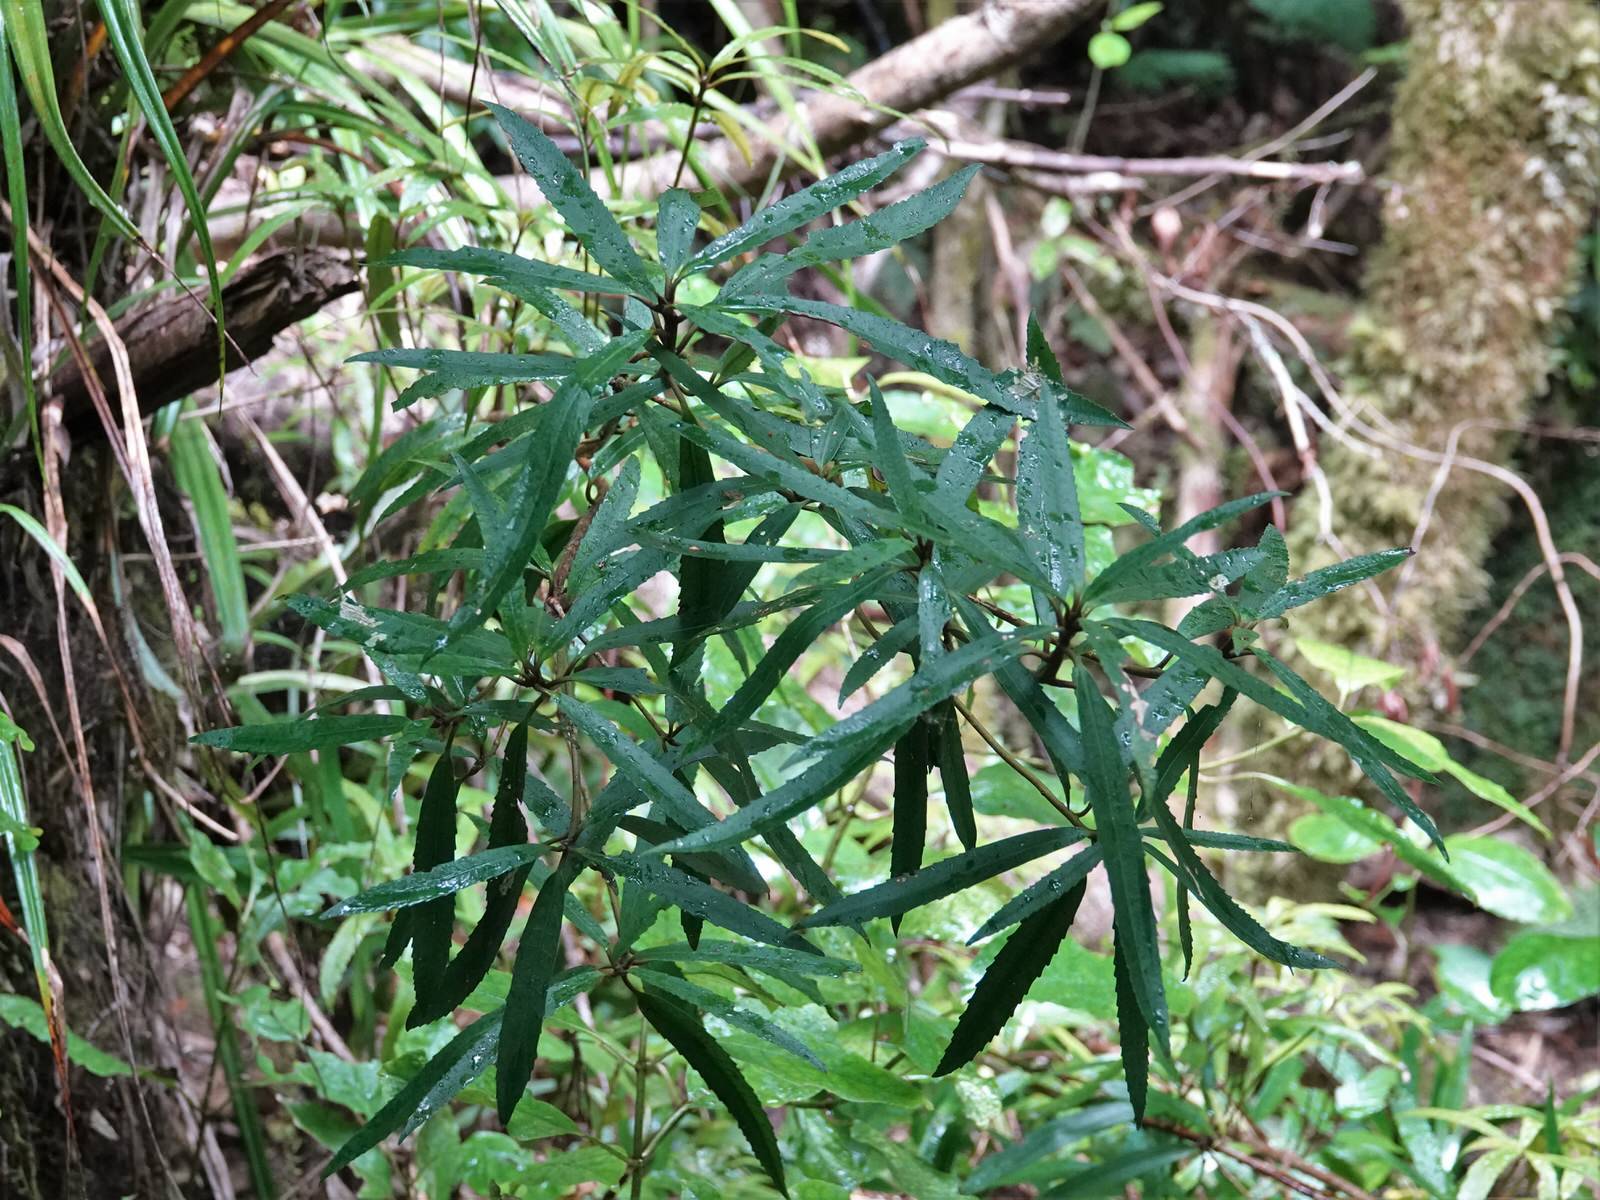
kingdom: Plantae
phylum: Tracheophyta
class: Magnoliopsida
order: Crossosomatales
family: Ixerbaceae
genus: Ixerba
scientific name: Ixerba brexioides
